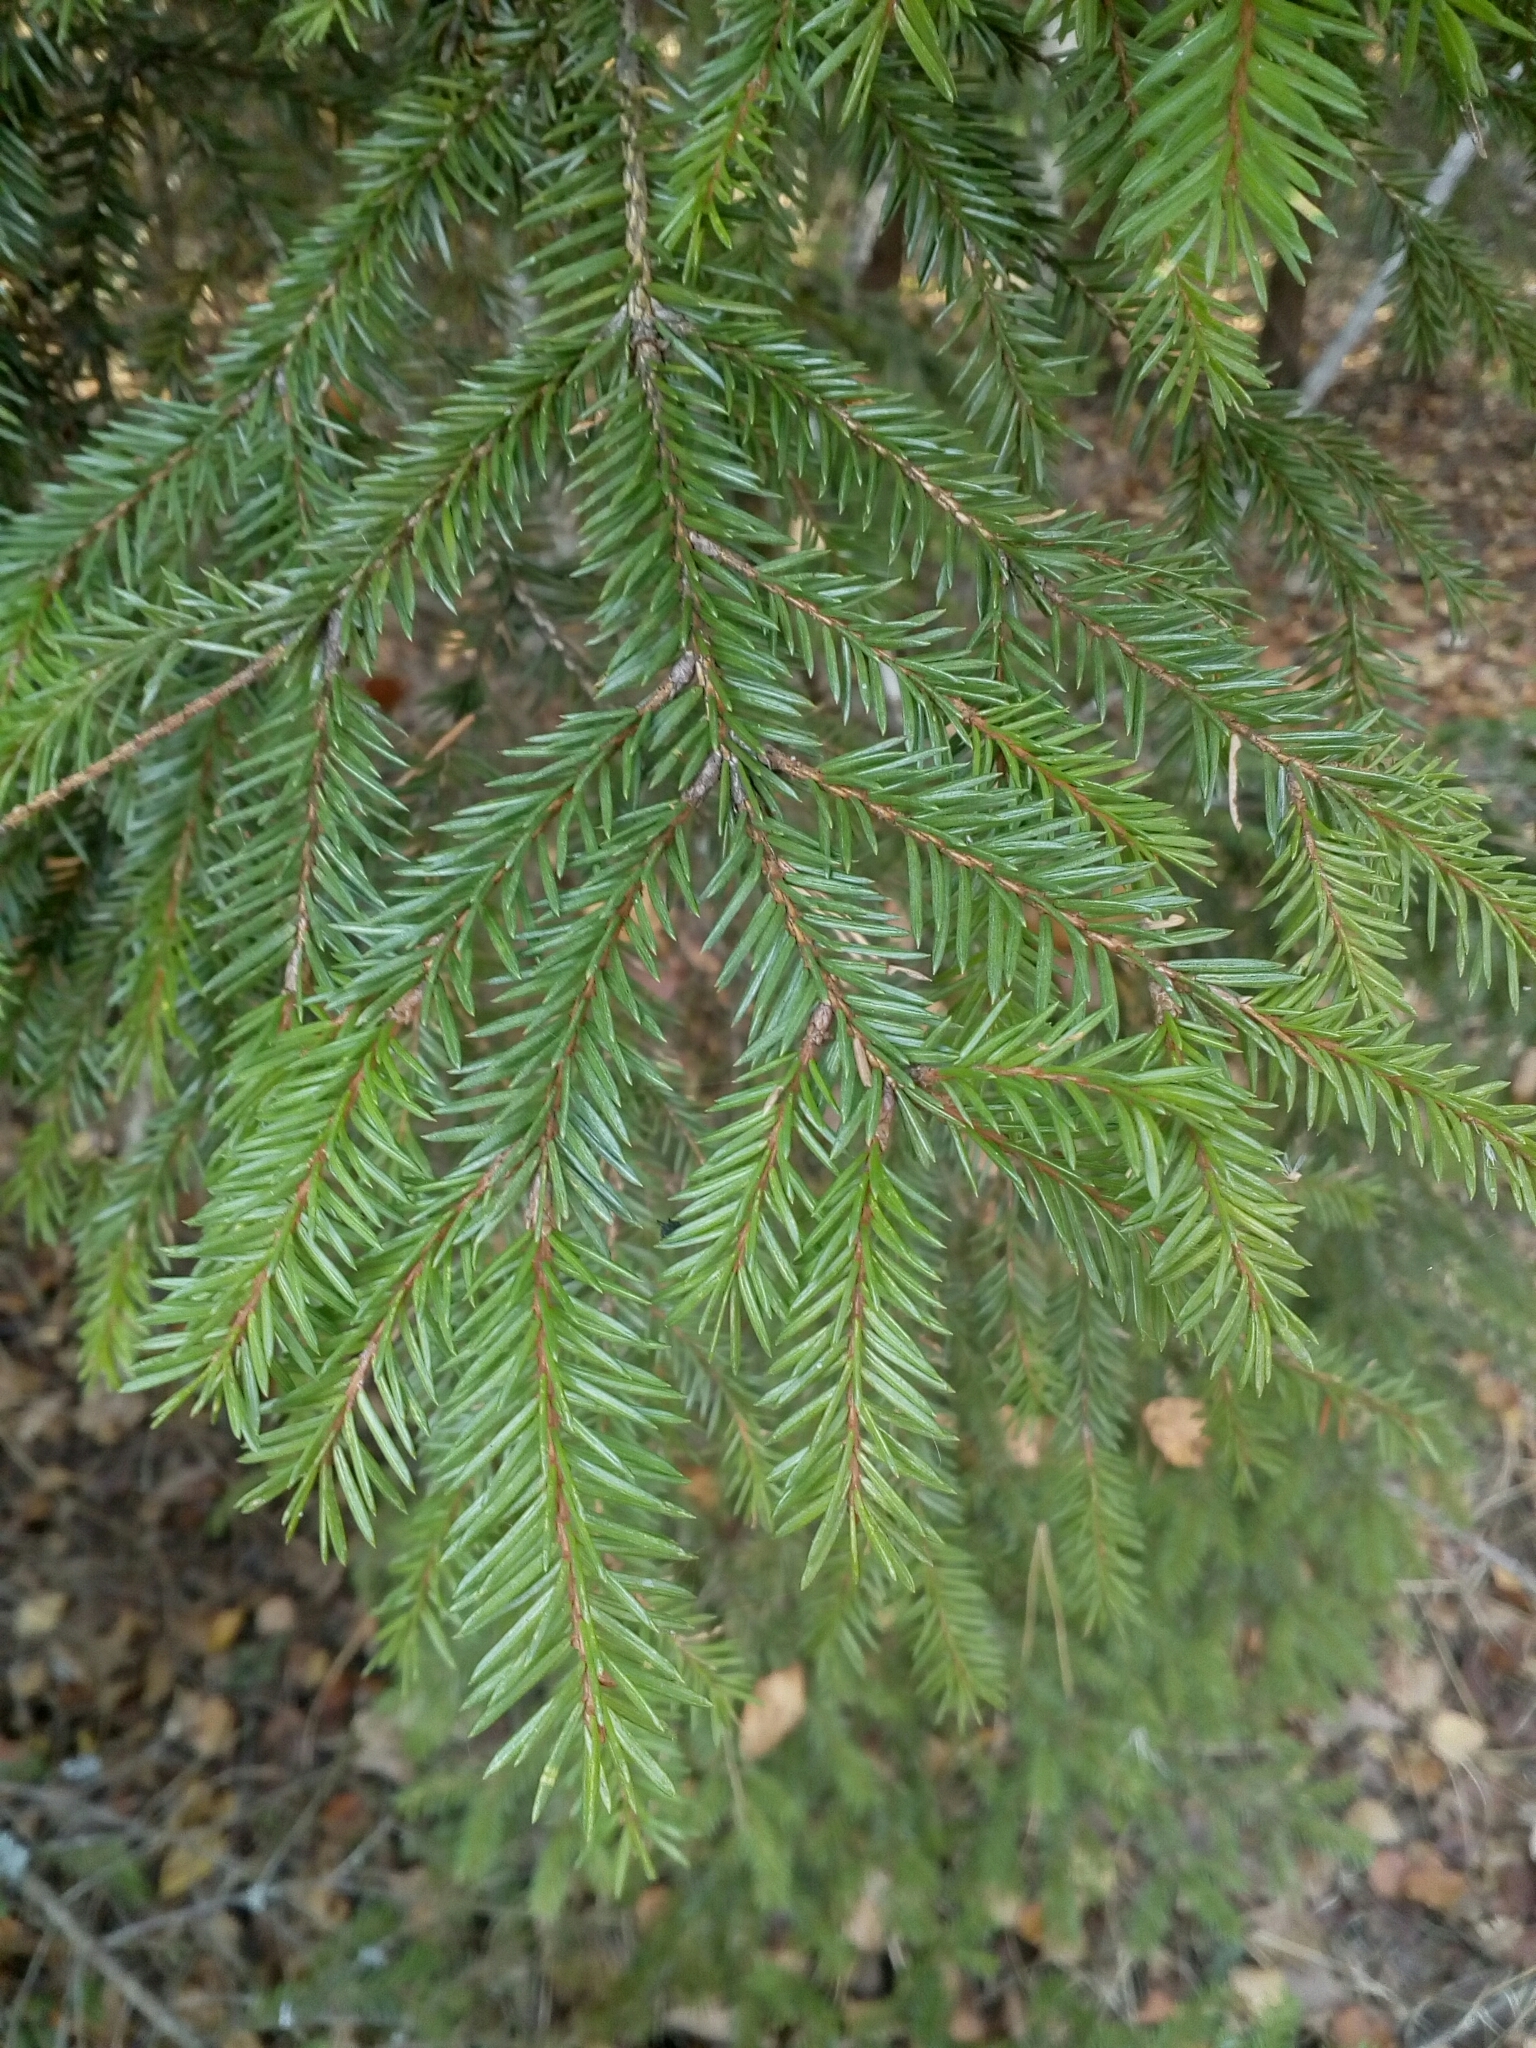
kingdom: Plantae
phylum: Tracheophyta
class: Pinopsida
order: Pinales
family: Pinaceae
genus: Picea
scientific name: Picea abies
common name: Norway spruce
